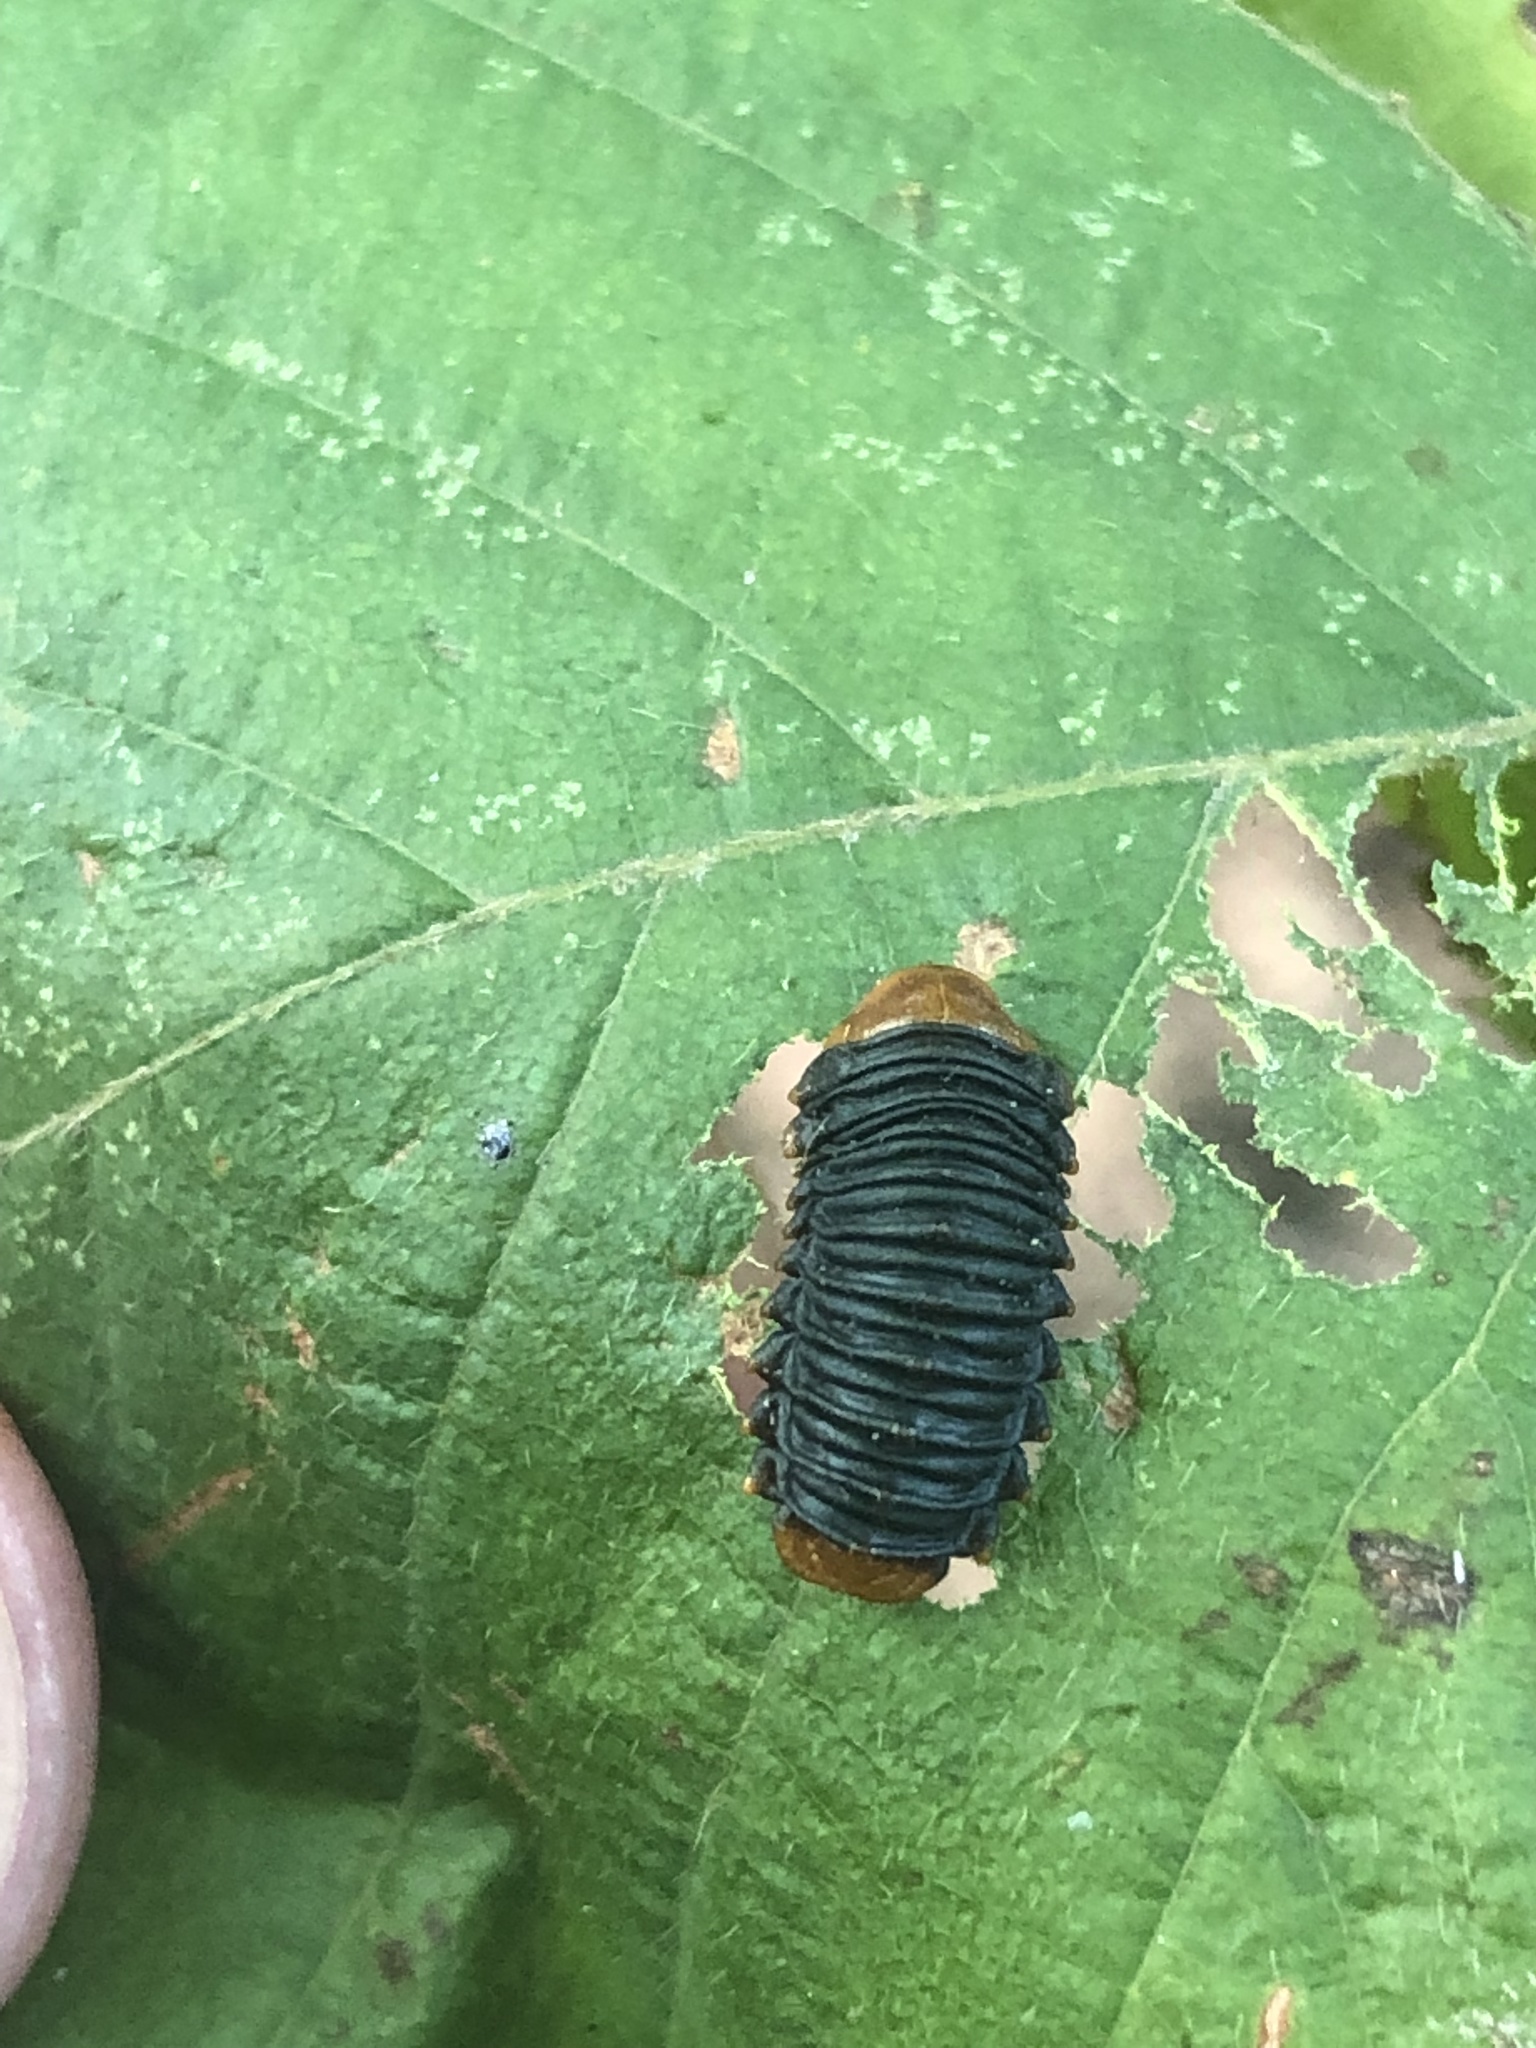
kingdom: Animalia
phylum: Arthropoda
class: Insecta
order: Coleoptera
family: Chrysomelidae
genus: Monocesta
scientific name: Monocesta coryli
